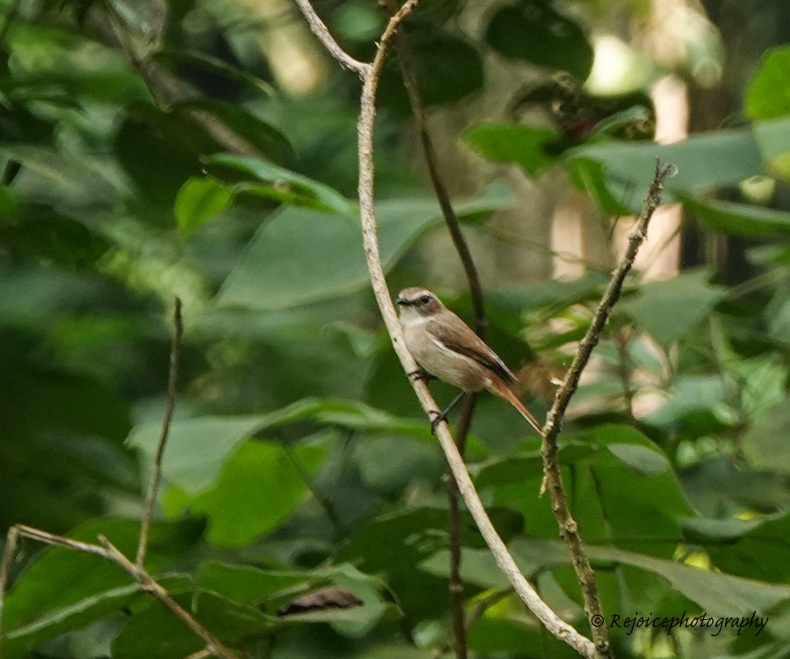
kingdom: Animalia
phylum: Chordata
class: Aves
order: Passeriformes
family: Muscicapidae
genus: Saxicola
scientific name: Saxicola ferreus
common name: Grey bush chat
